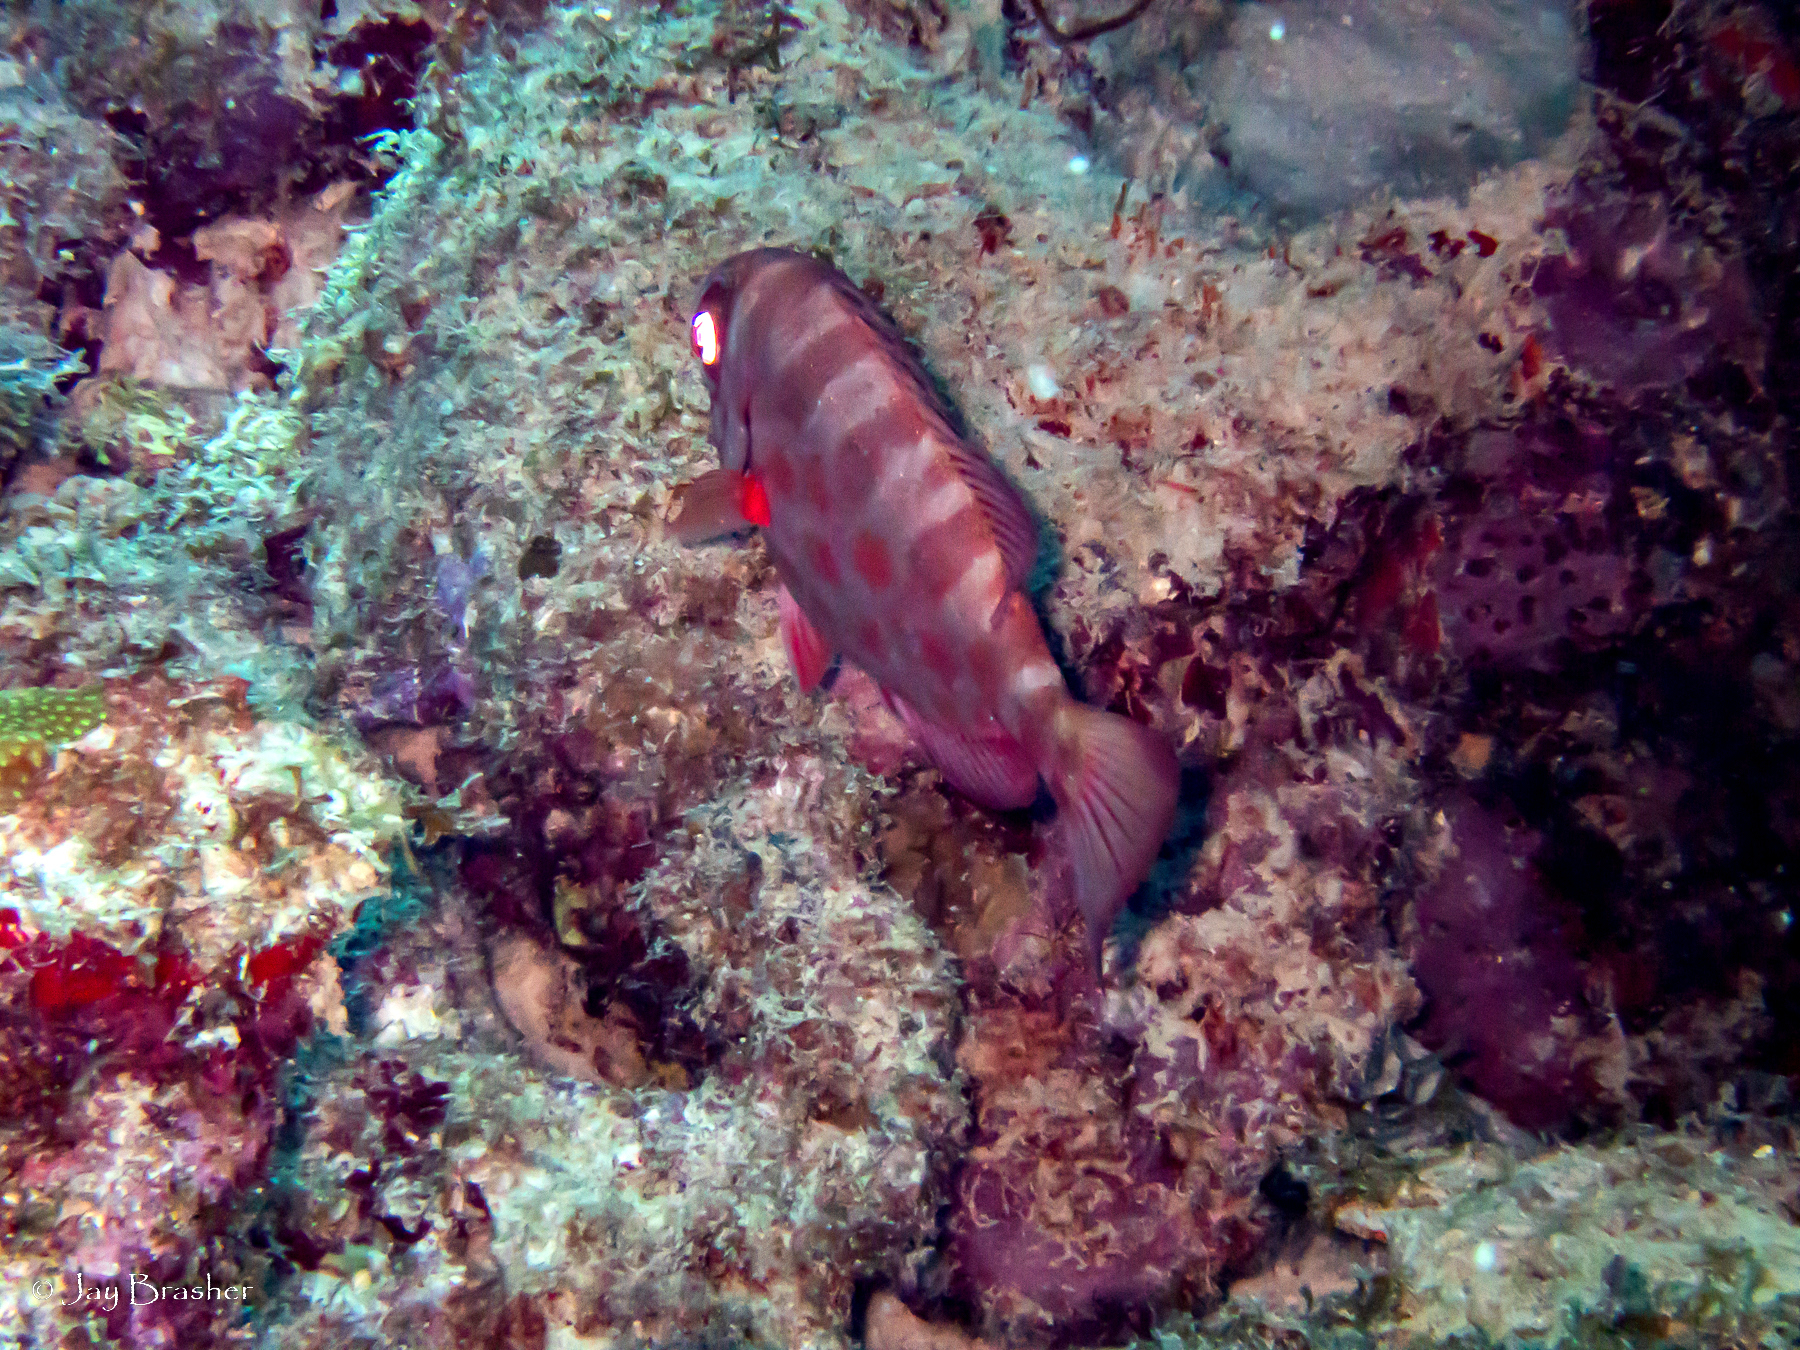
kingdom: Animalia
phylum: Chordata
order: Perciformes
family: Priacanthidae
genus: Heteropriacanthus
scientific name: Heteropriacanthus cruentatus
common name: Glasseye
